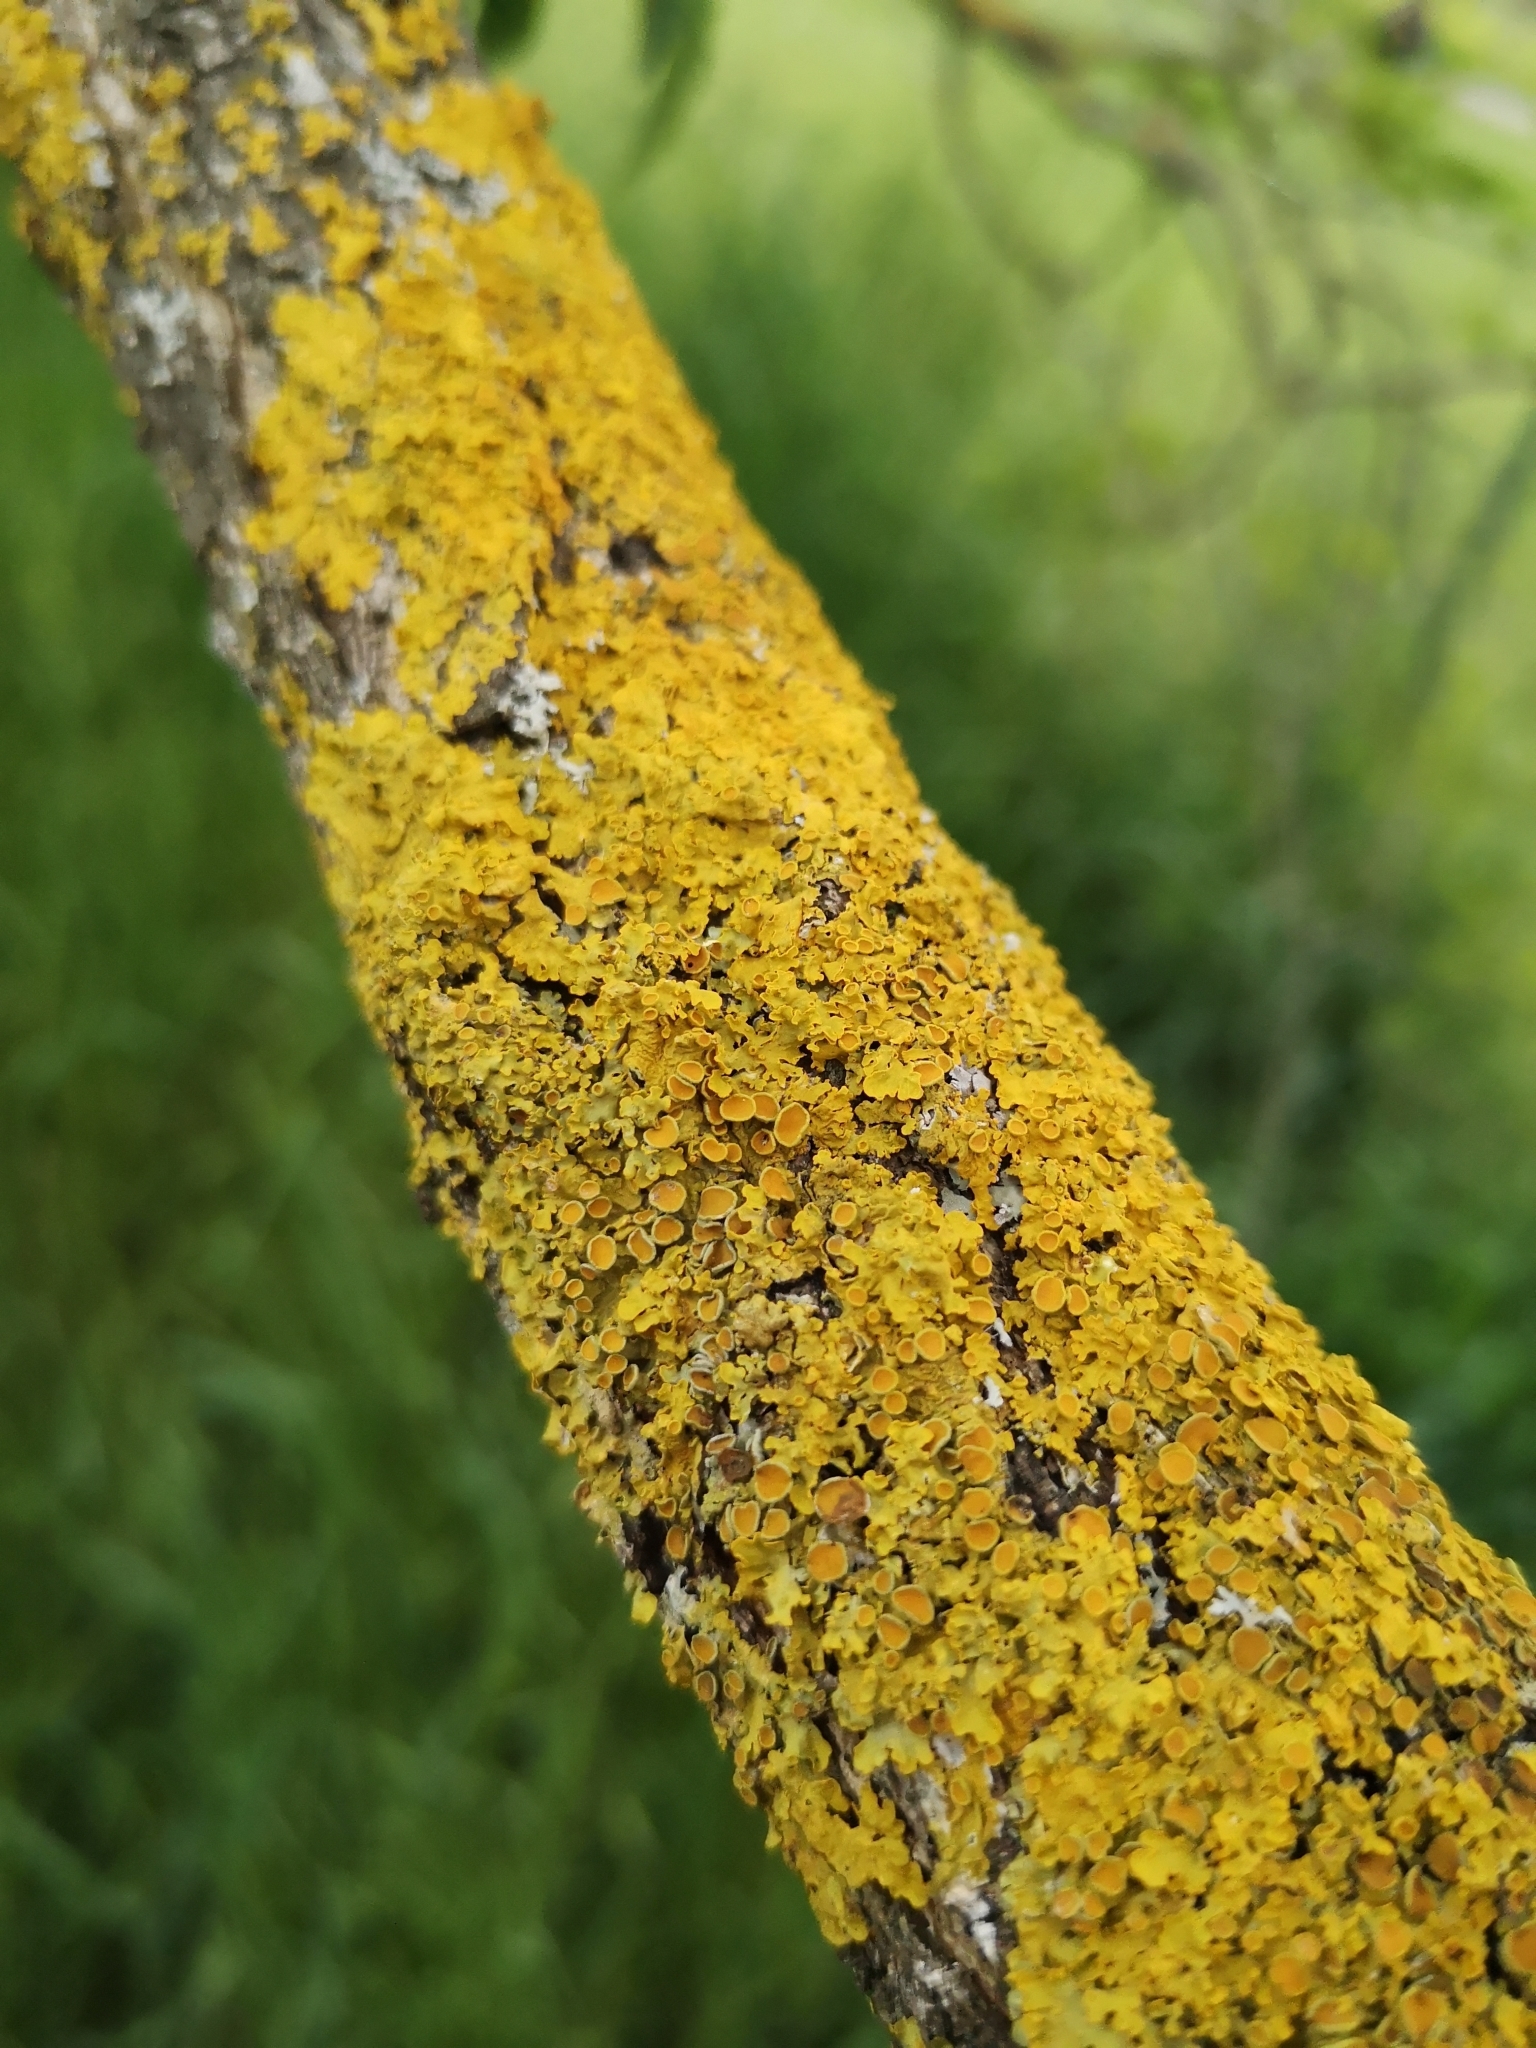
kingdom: Fungi
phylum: Ascomycota
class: Lecanoromycetes
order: Teloschistales
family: Teloschistaceae
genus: Xanthoria
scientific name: Xanthoria parietina
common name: Common orange lichen
